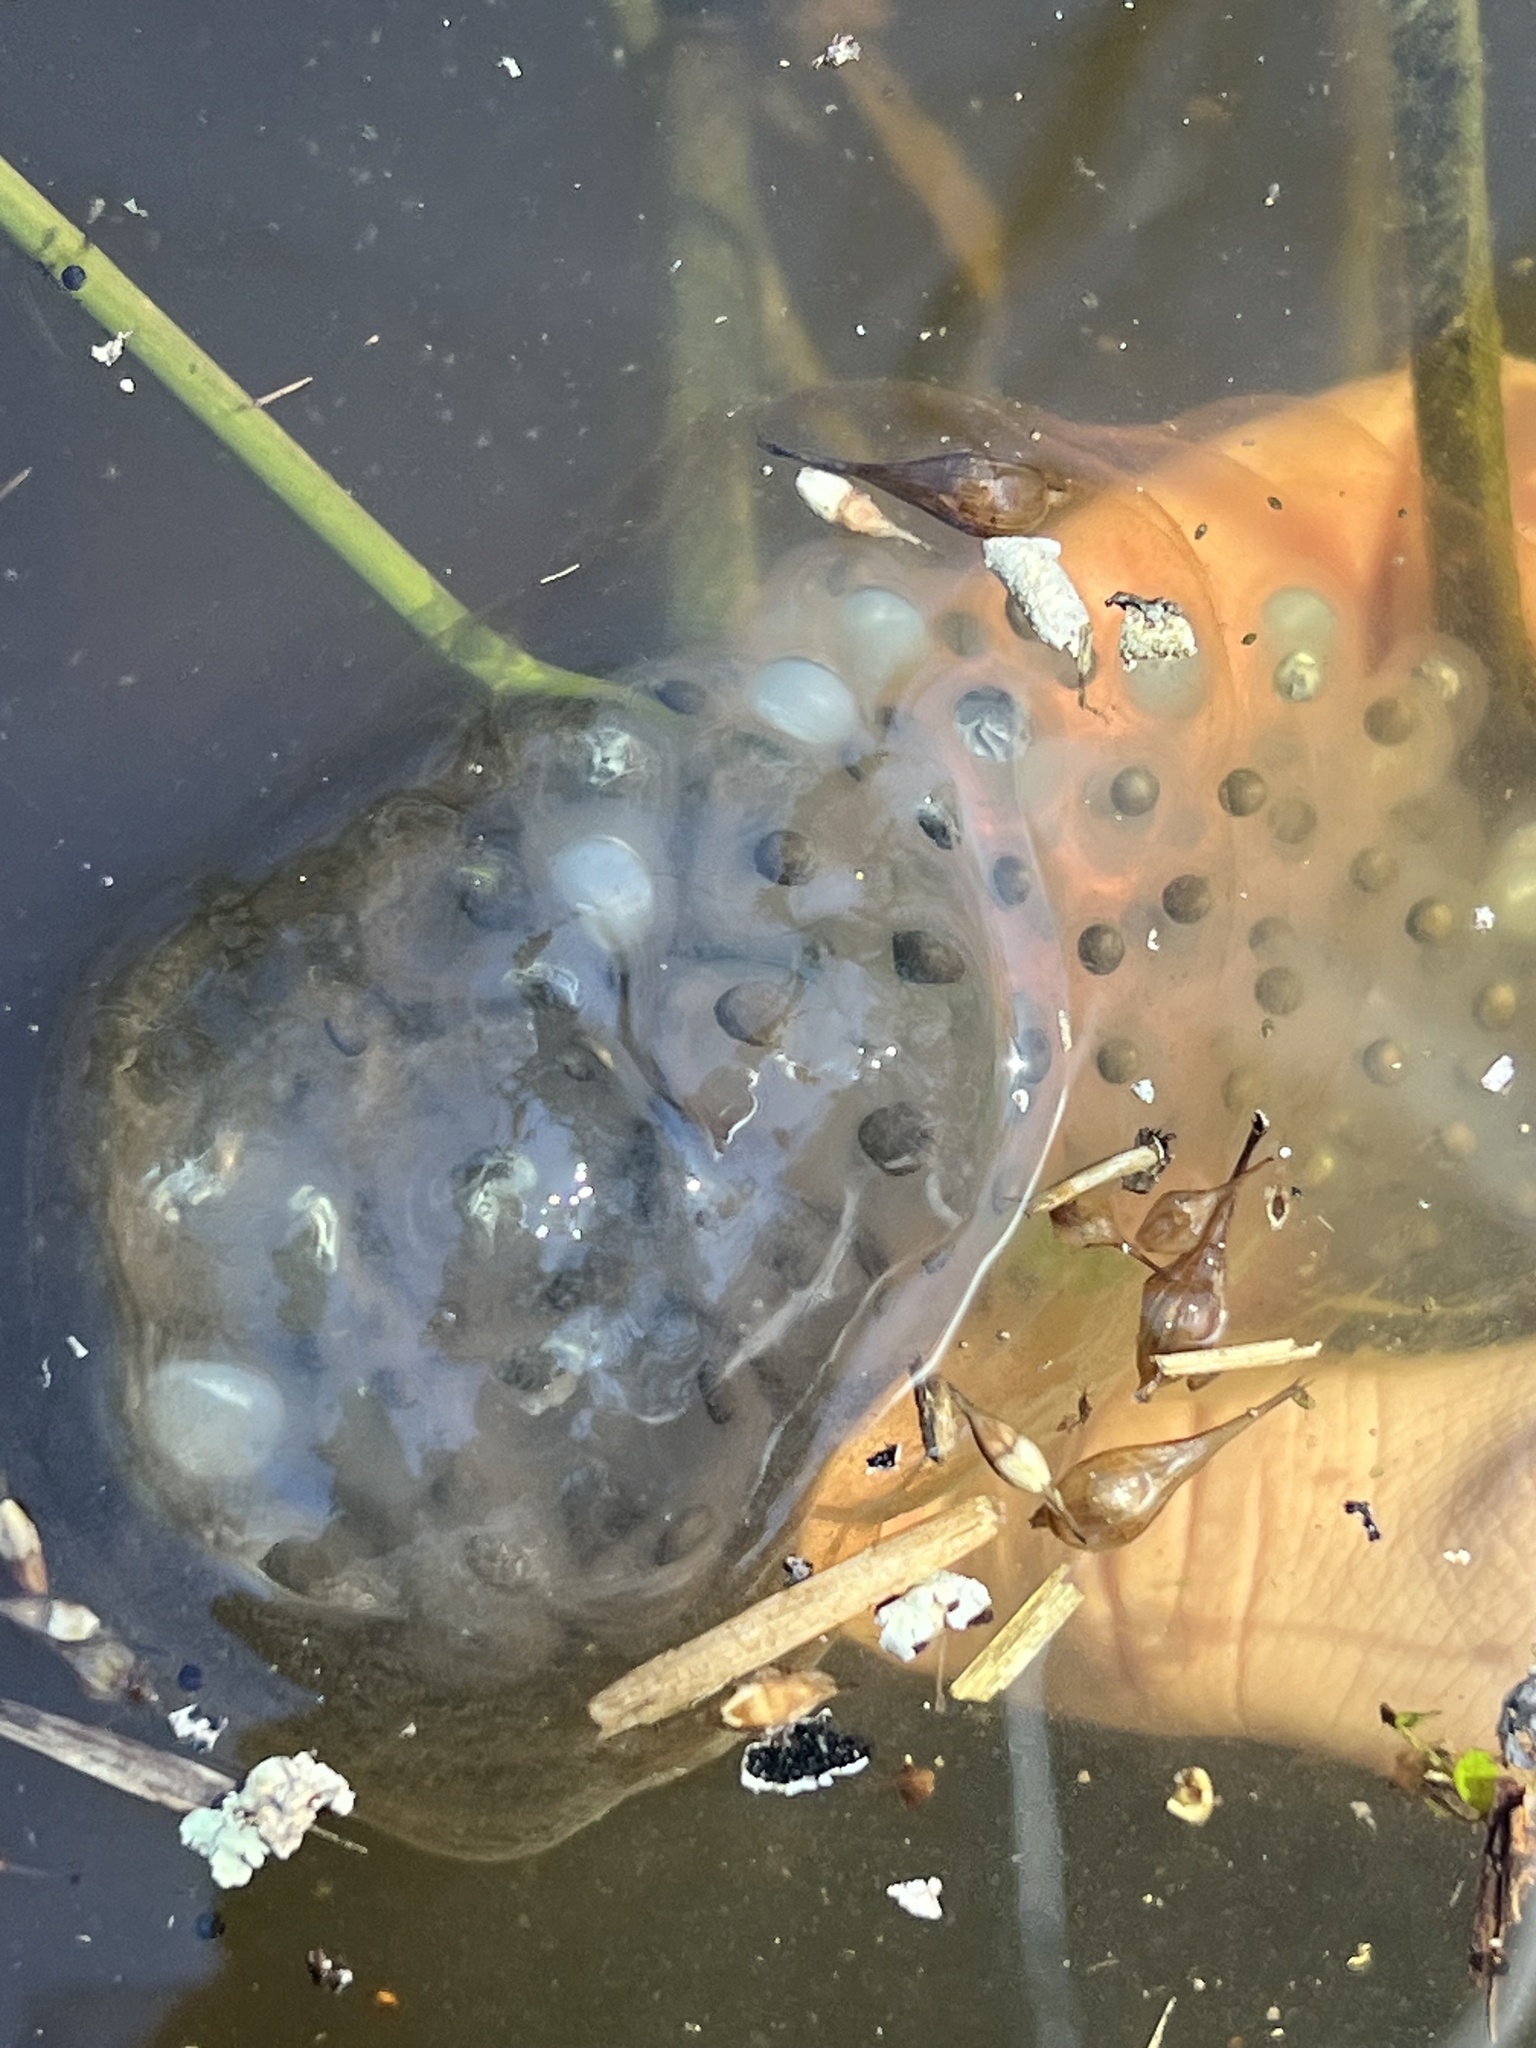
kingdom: Animalia
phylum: Chordata
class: Amphibia
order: Caudata
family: Ambystomatidae
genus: Ambystoma
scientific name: Ambystoma maculatum
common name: Spotted salamander
